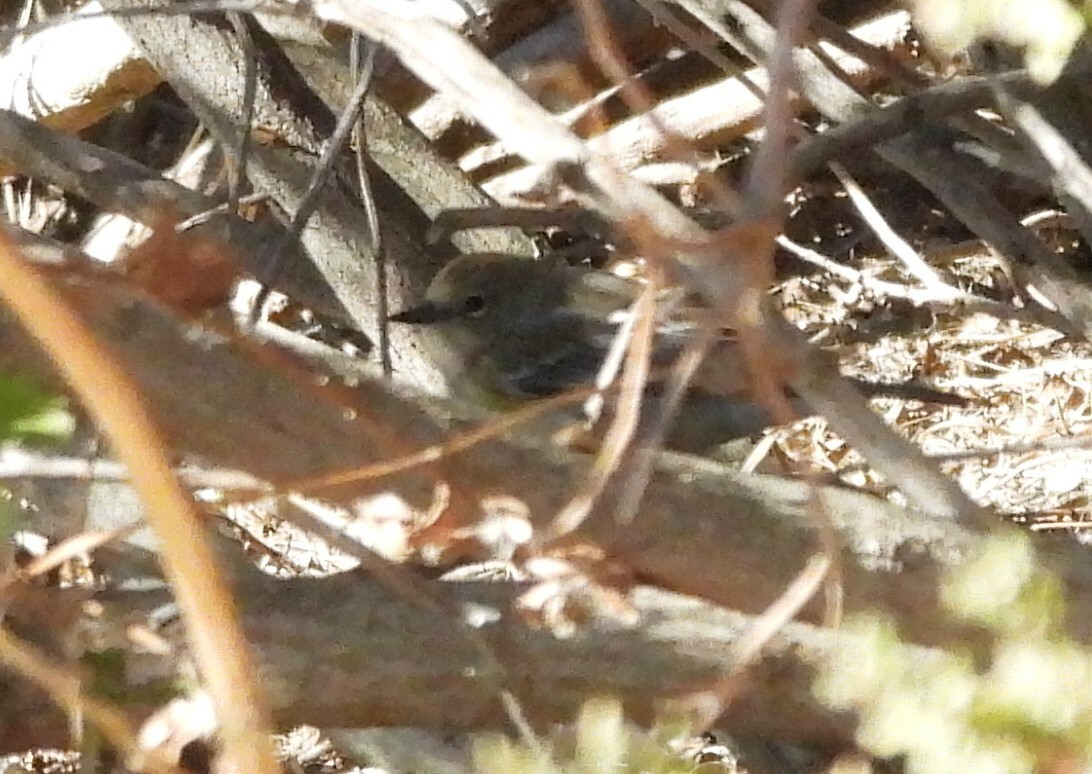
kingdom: Animalia
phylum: Chordata
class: Aves
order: Passeriformes
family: Parulidae
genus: Setophaga
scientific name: Setophaga coronata
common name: Myrtle warbler
